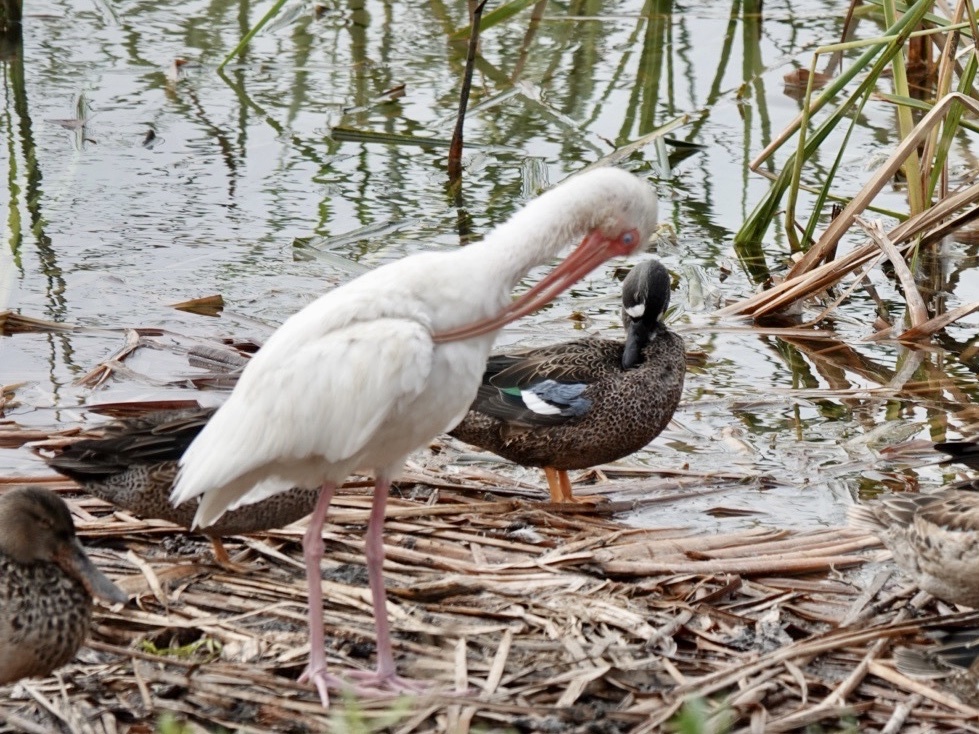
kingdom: Animalia
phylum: Chordata
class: Aves
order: Pelecaniformes
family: Threskiornithidae
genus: Eudocimus
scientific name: Eudocimus albus
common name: White ibis
